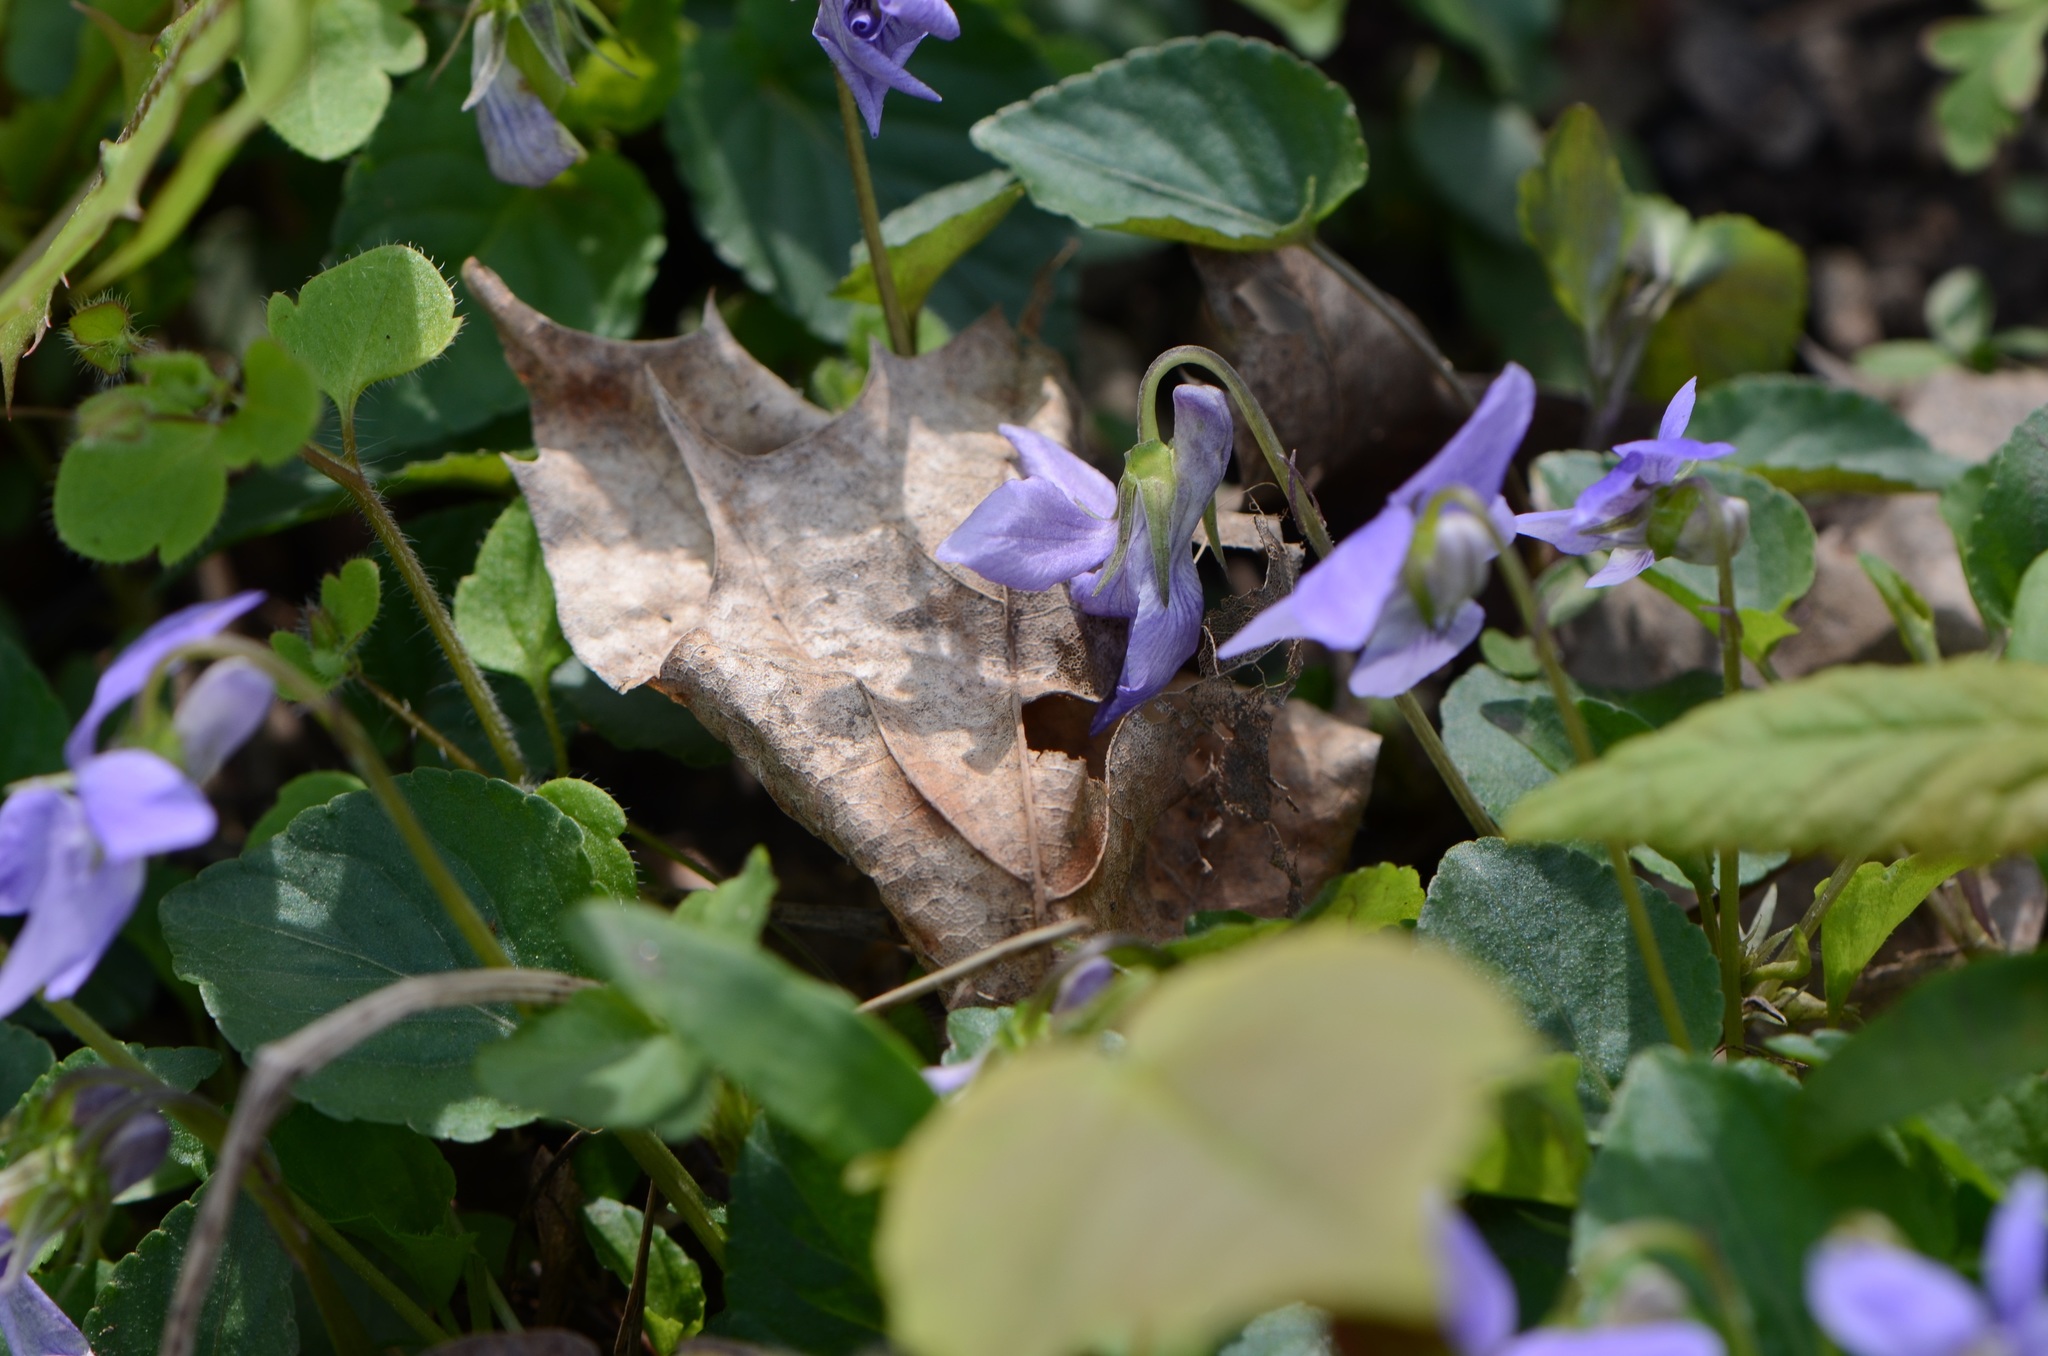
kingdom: Plantae
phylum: Tracheophyta
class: Magnoliopsida
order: Malpighiales
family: Violaceae
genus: Viola
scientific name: Viola reichenbachiana
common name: Early dog-violet
